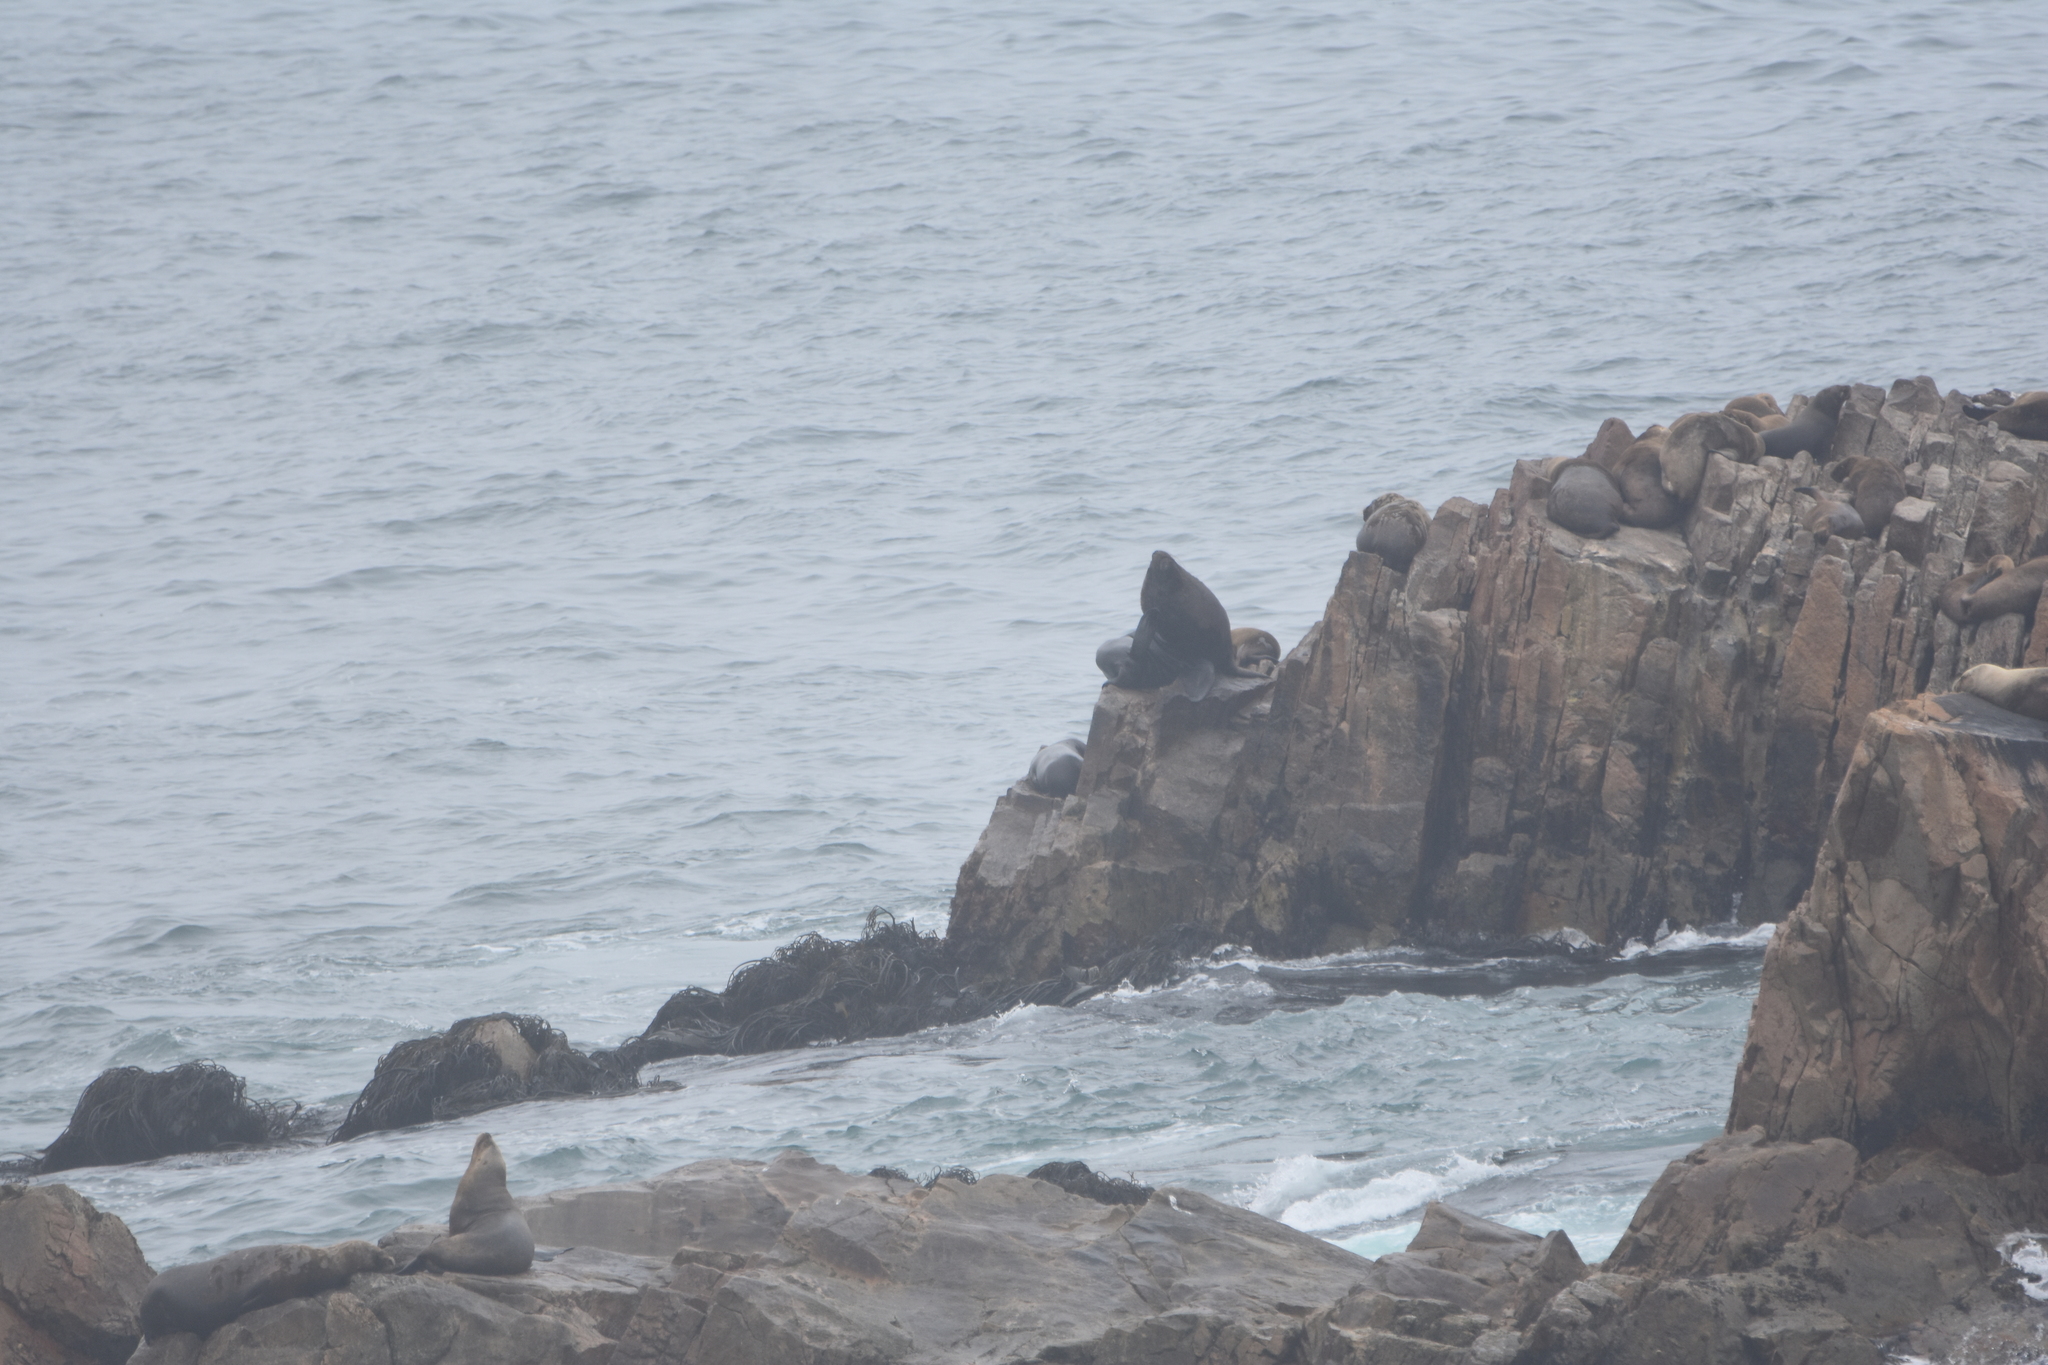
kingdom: Animalia
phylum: Chordata
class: Mammalia
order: Carnivora
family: Otariidae
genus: Otaria
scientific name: Otaria byronia
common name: South american sea lion
